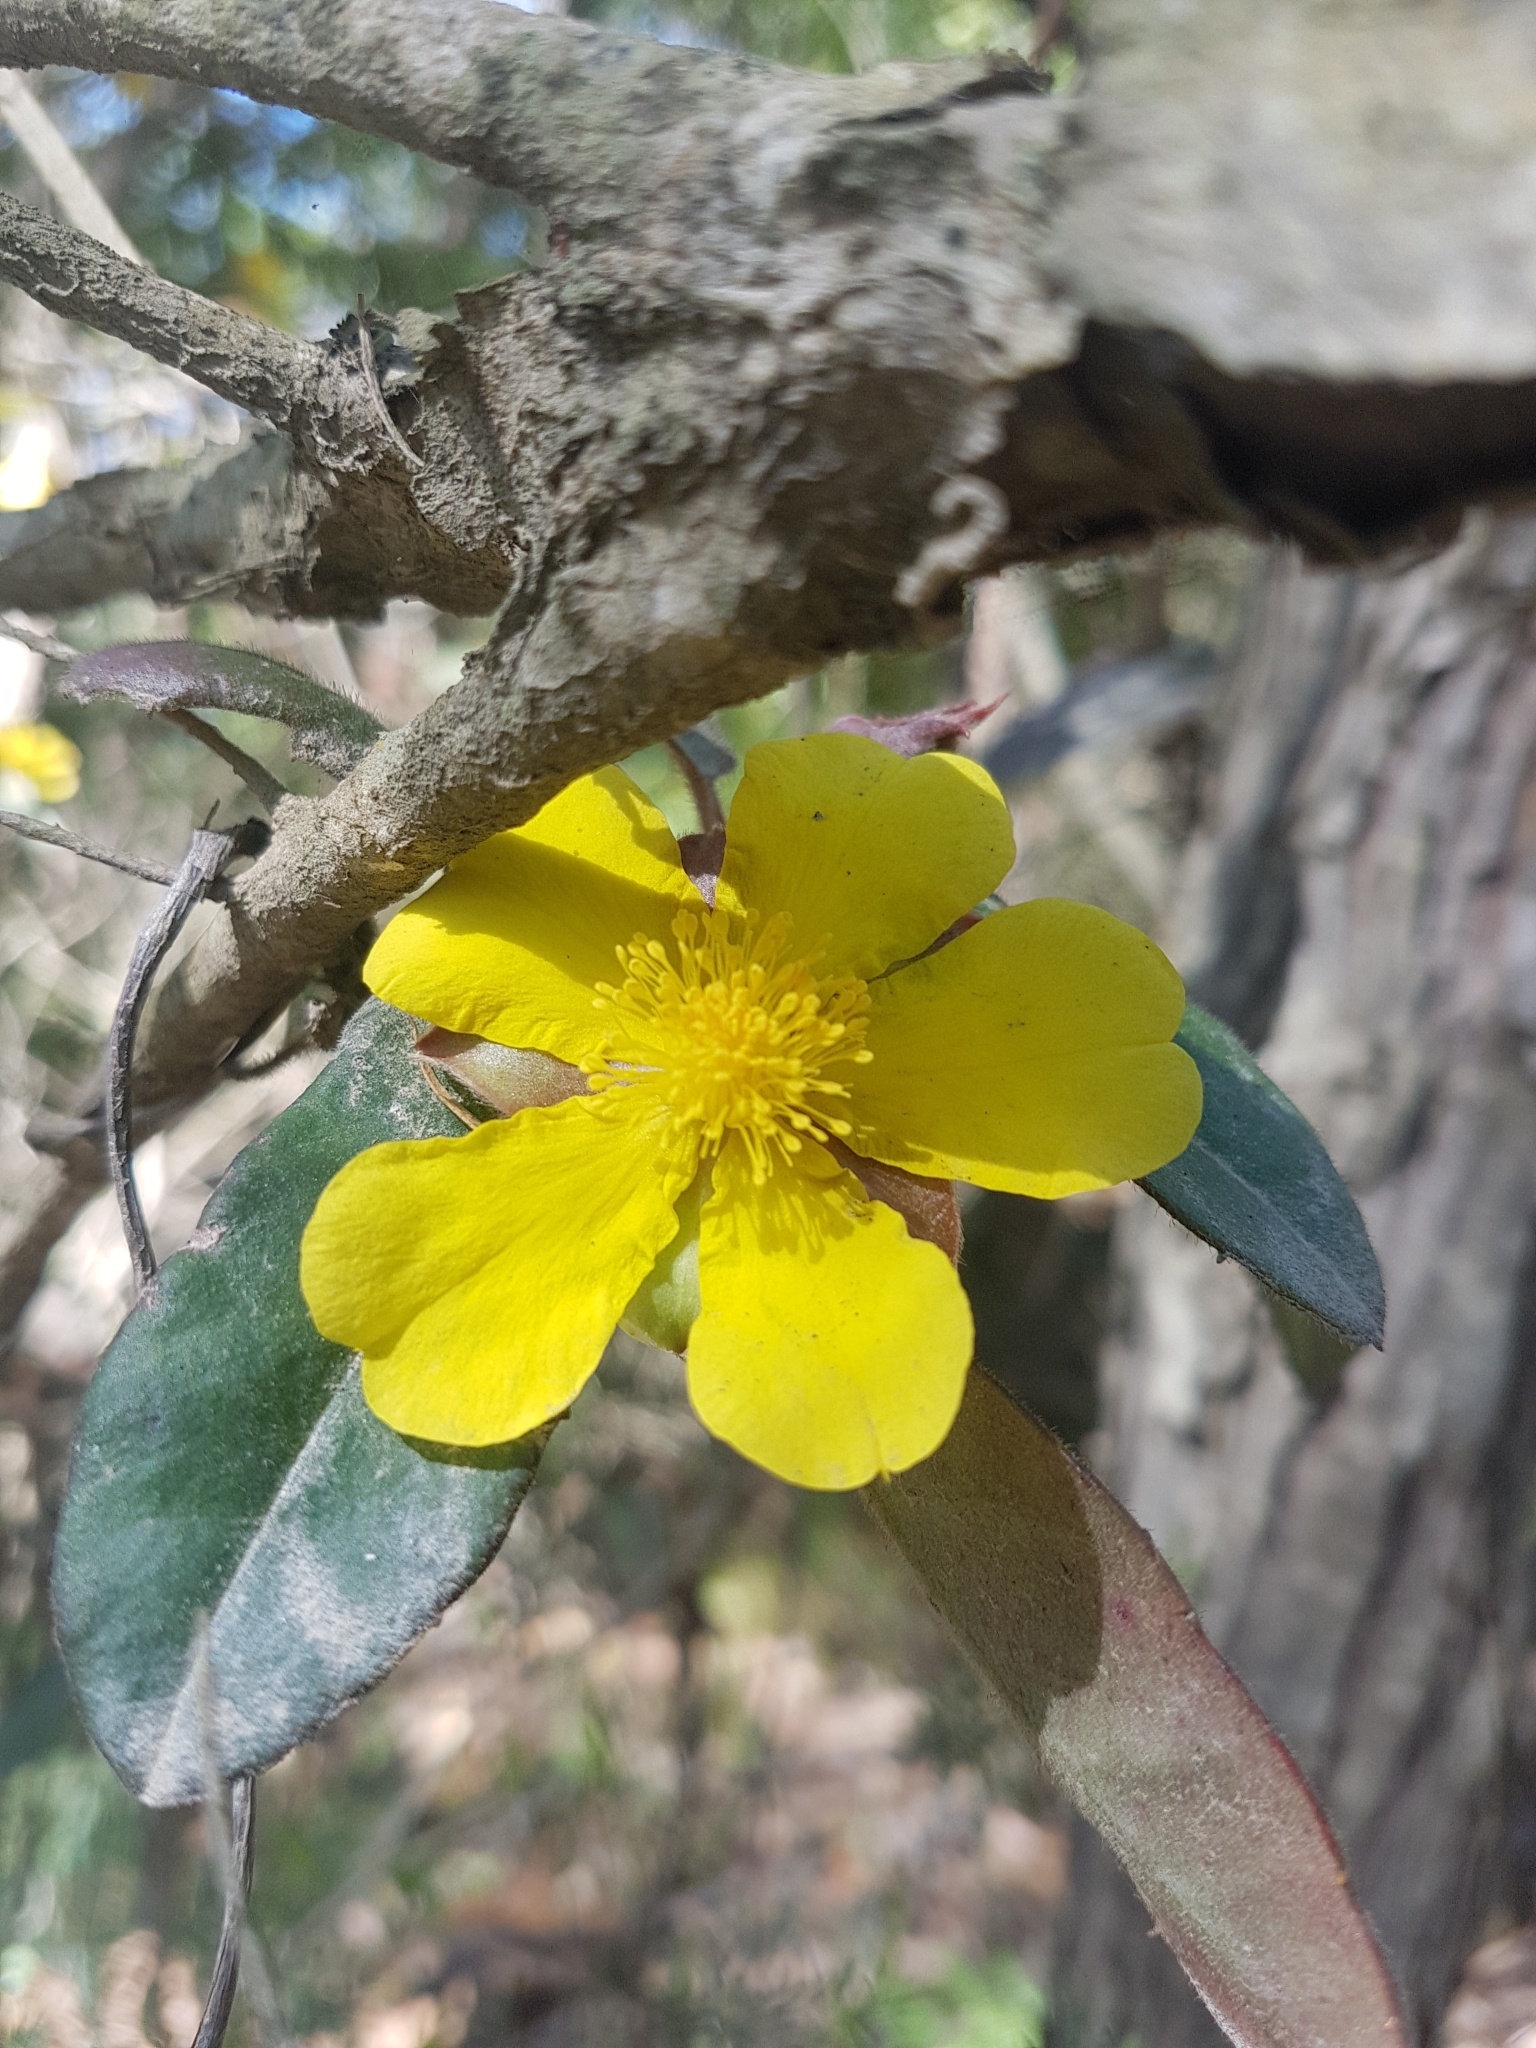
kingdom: Plantae
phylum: Tracheophyta
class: Magnoliopsida
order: Dilleniales
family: Dilleniaceae
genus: Hibbertia
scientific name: Hibbertia dentata
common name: Trailing guinea-flower
